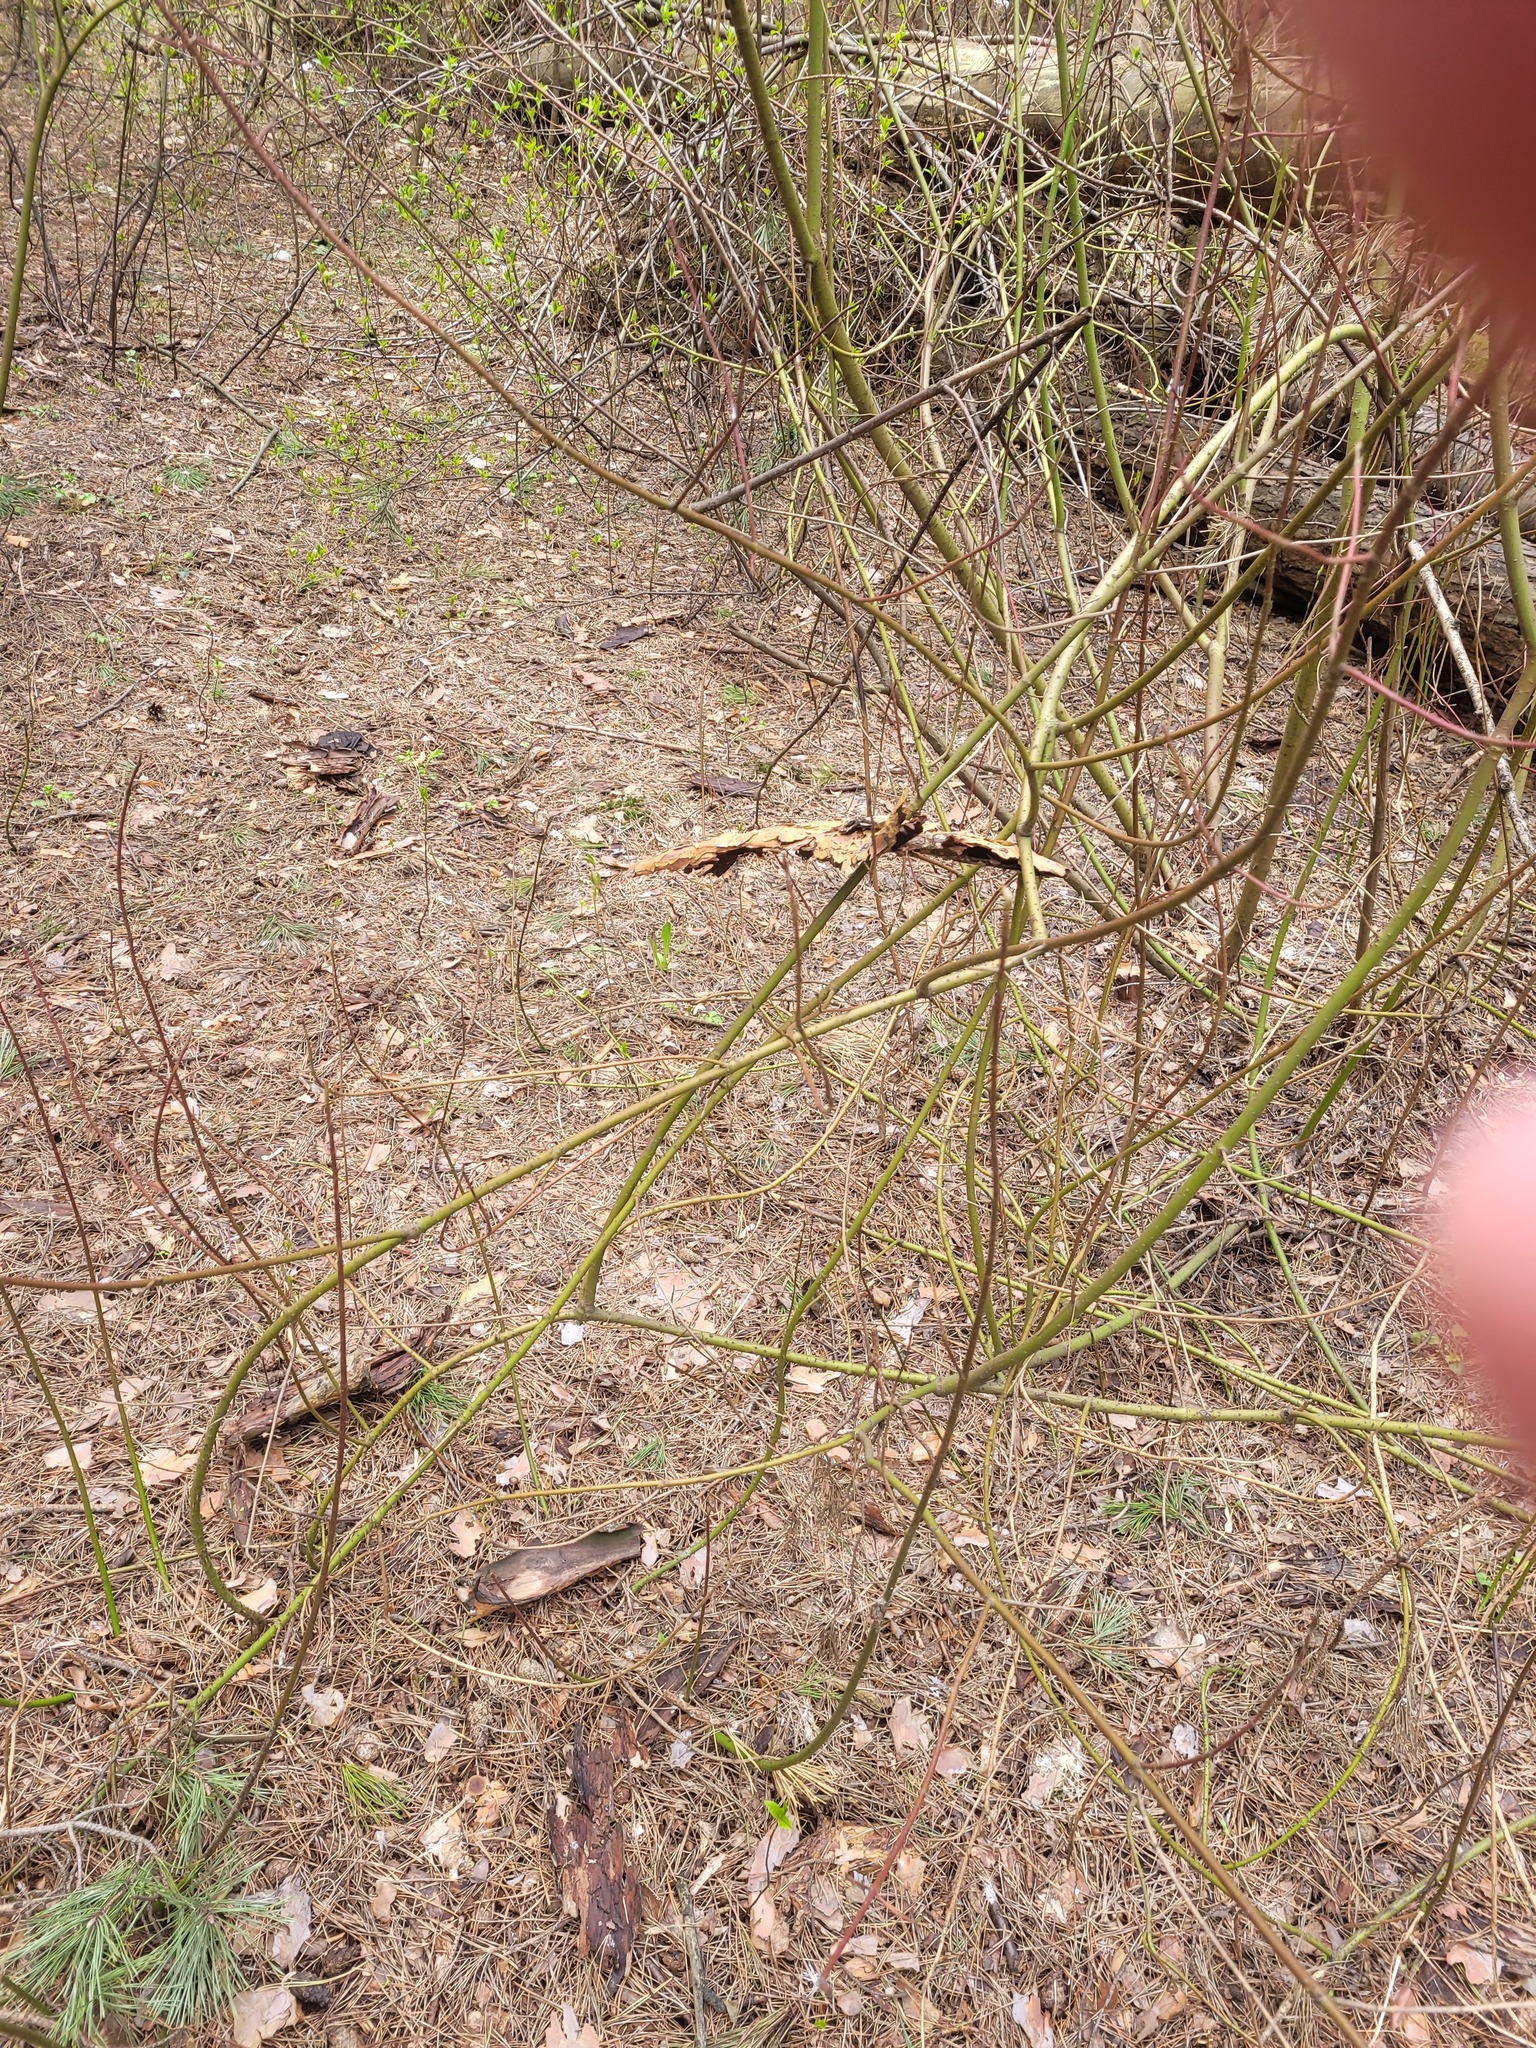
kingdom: Plantae
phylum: Tracheophyta
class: Magnoliopsida
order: Cornales
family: Cornaceae
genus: Cornus
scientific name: Cornus sericea
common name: Red-osier dogwood
